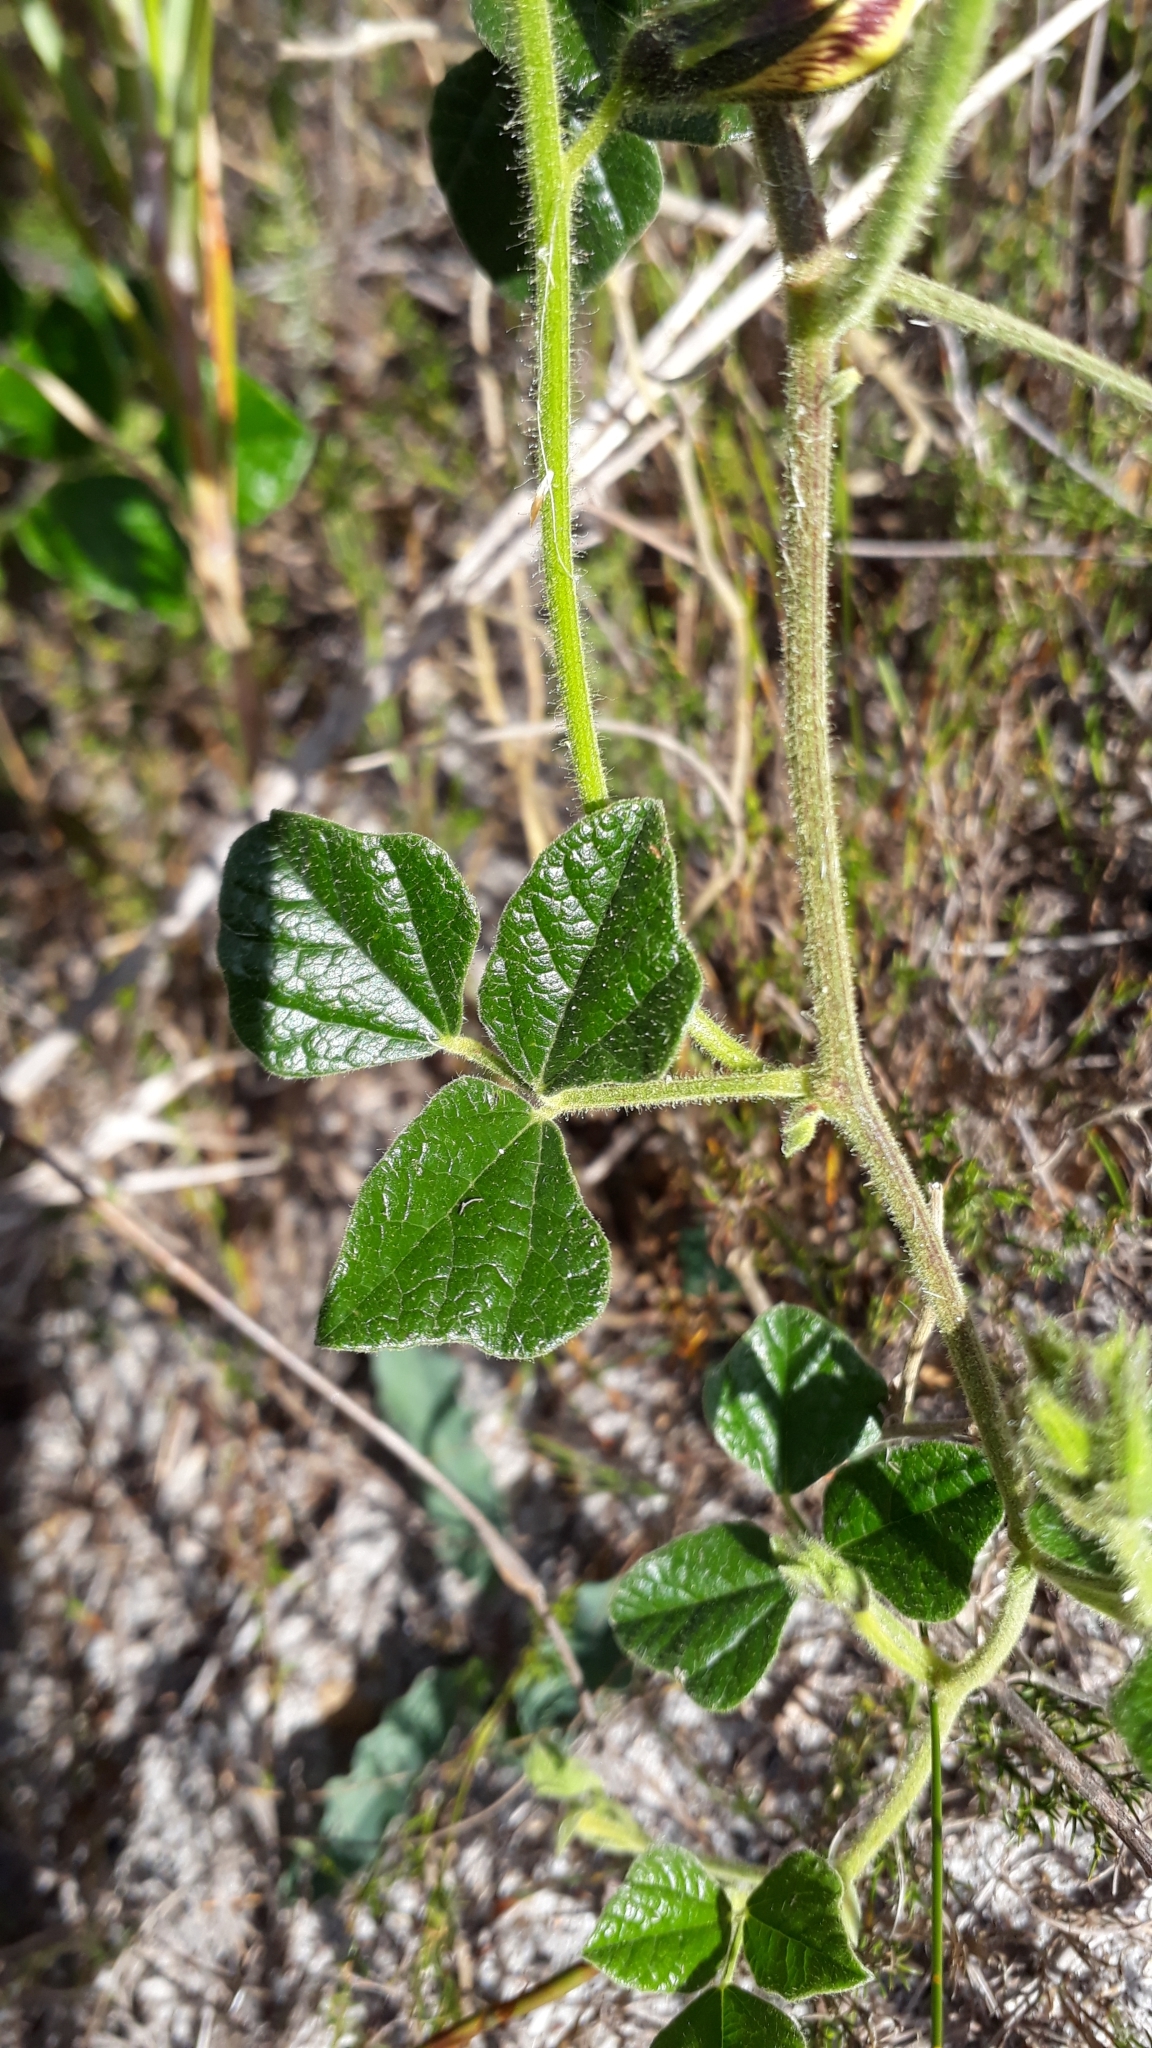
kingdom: Plantae
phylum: Tracheophyta
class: Magnoliopsida
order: Fabales
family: Fabaceae
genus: Bolusafra
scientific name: Bolusafra bituminosa
